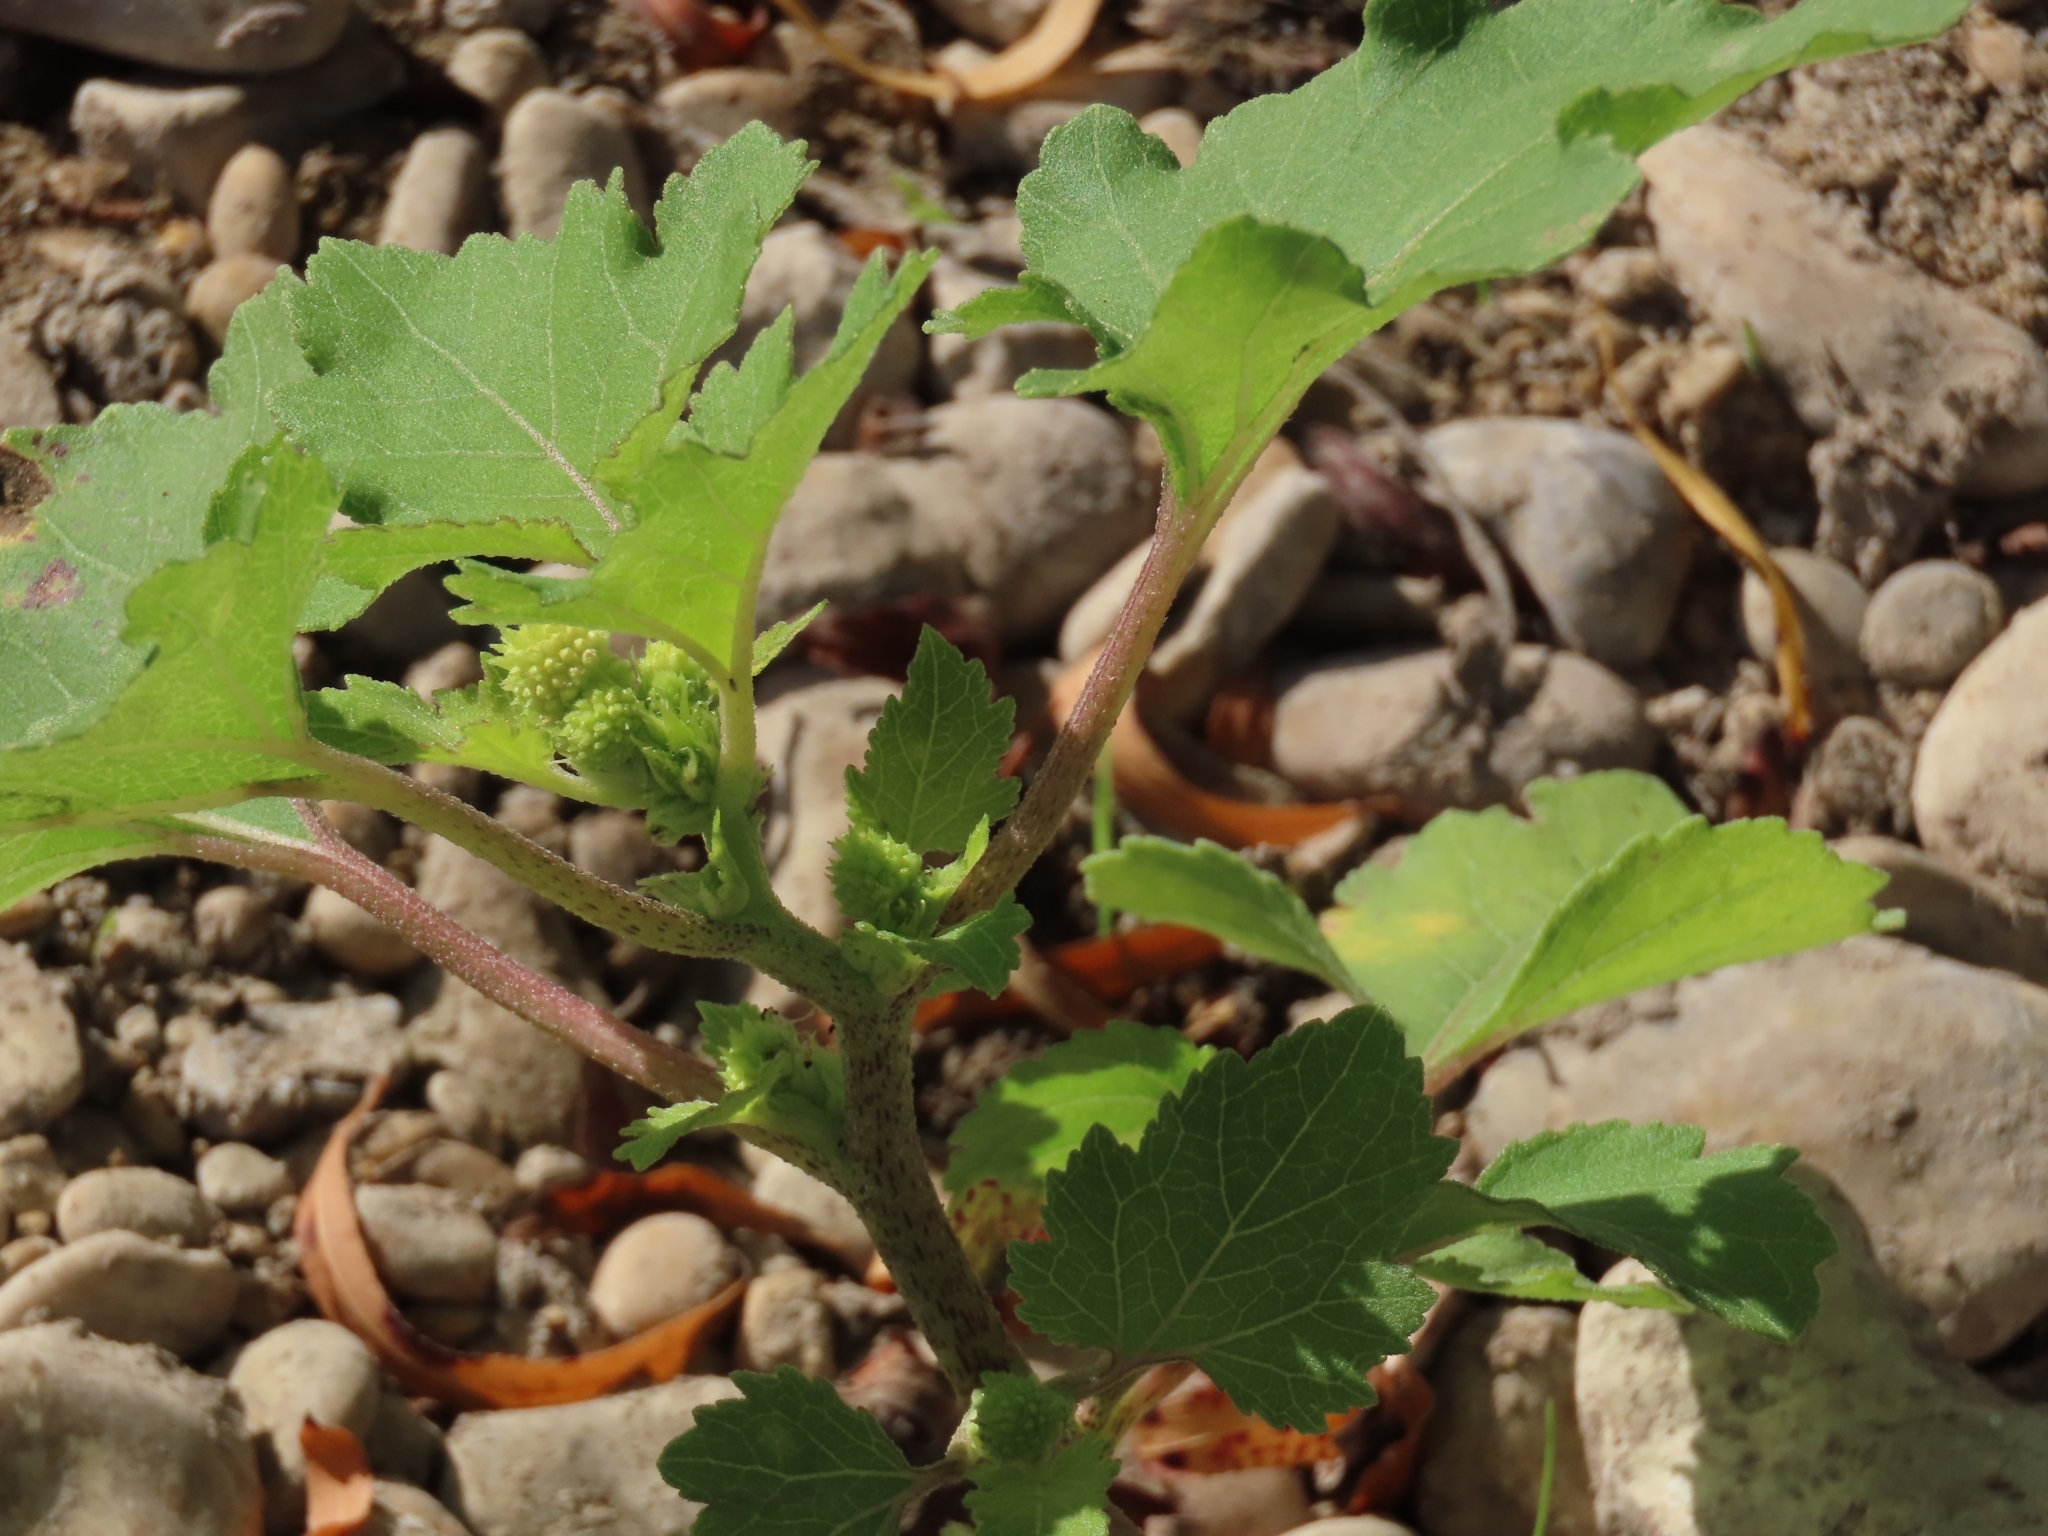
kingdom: Plantae
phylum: Tracheophyta
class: Magnoliopsida
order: Asterales
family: Asteraceae
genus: Xanthium
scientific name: Xanthium strumarium
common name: Rough cocklebur
